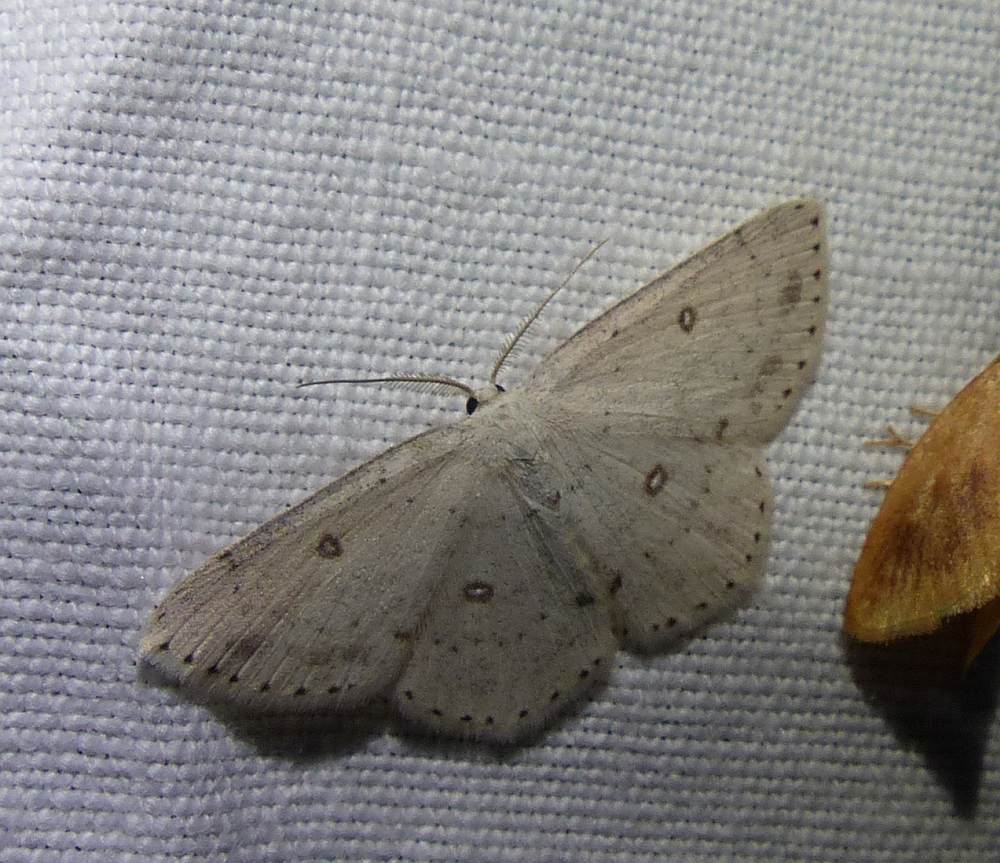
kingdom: Animalia
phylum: Arthropoda
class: Insecta
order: Lepidoptera
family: Geometridae
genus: Cyclophora
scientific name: Cyclophora pendulinaria
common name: Sweet fern geometer
